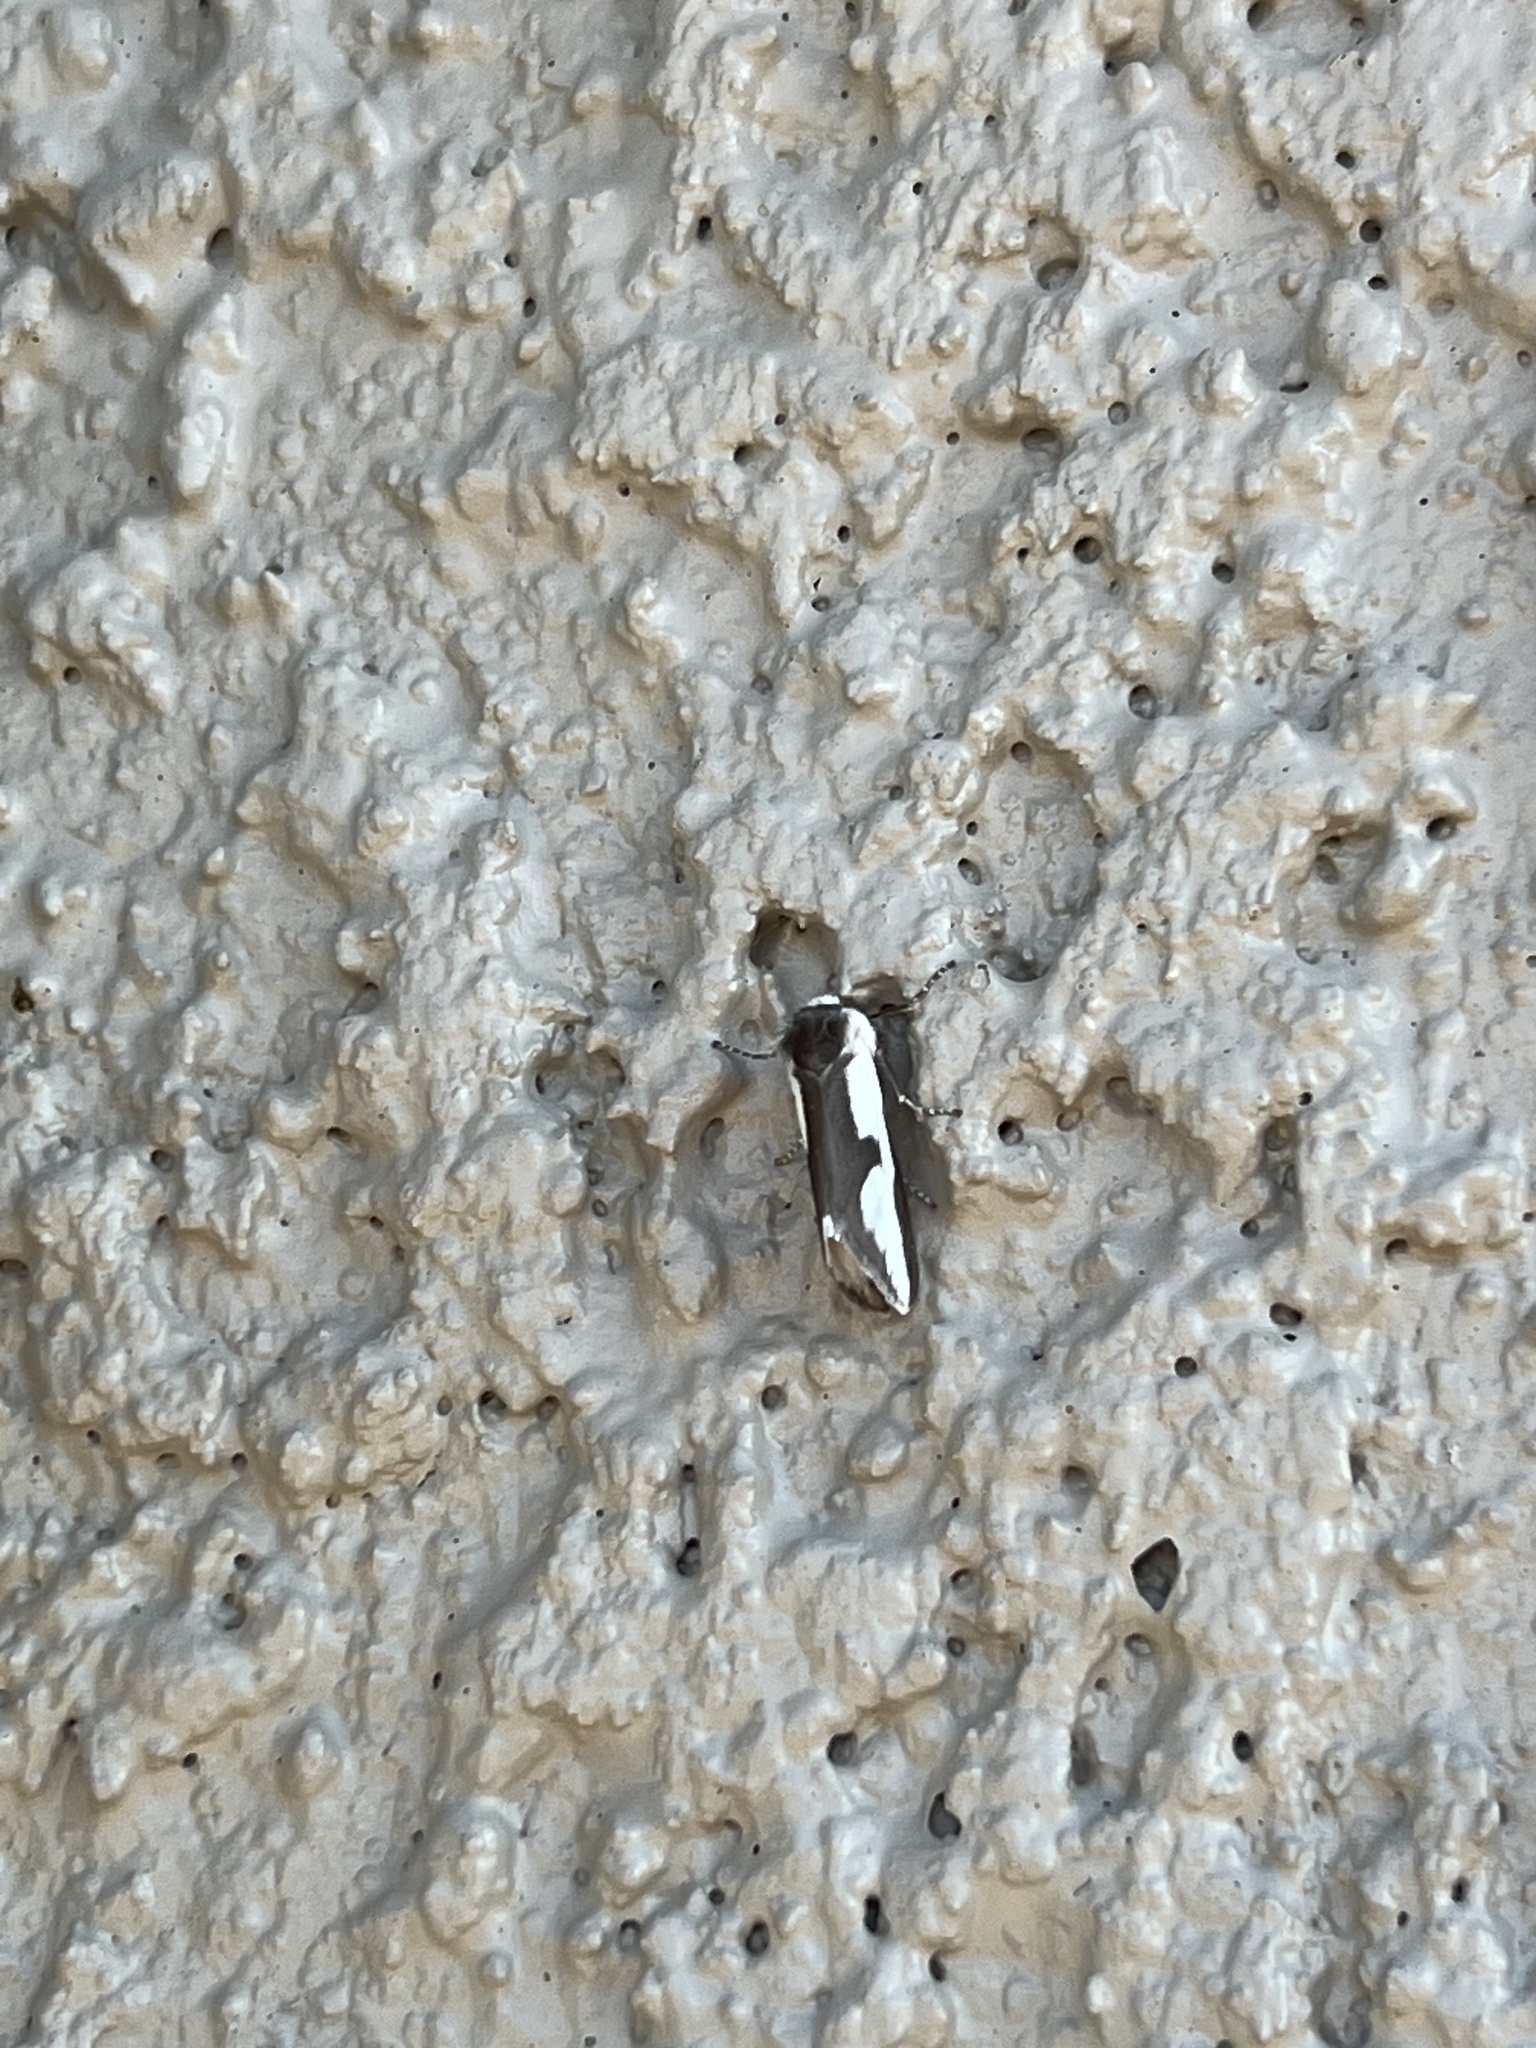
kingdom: Animalia
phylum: Arthropoda
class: Insecta
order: Lepidoptera
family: Noctuidae
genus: Euscirrhopterus
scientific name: Euscirrhopterus cosyra
